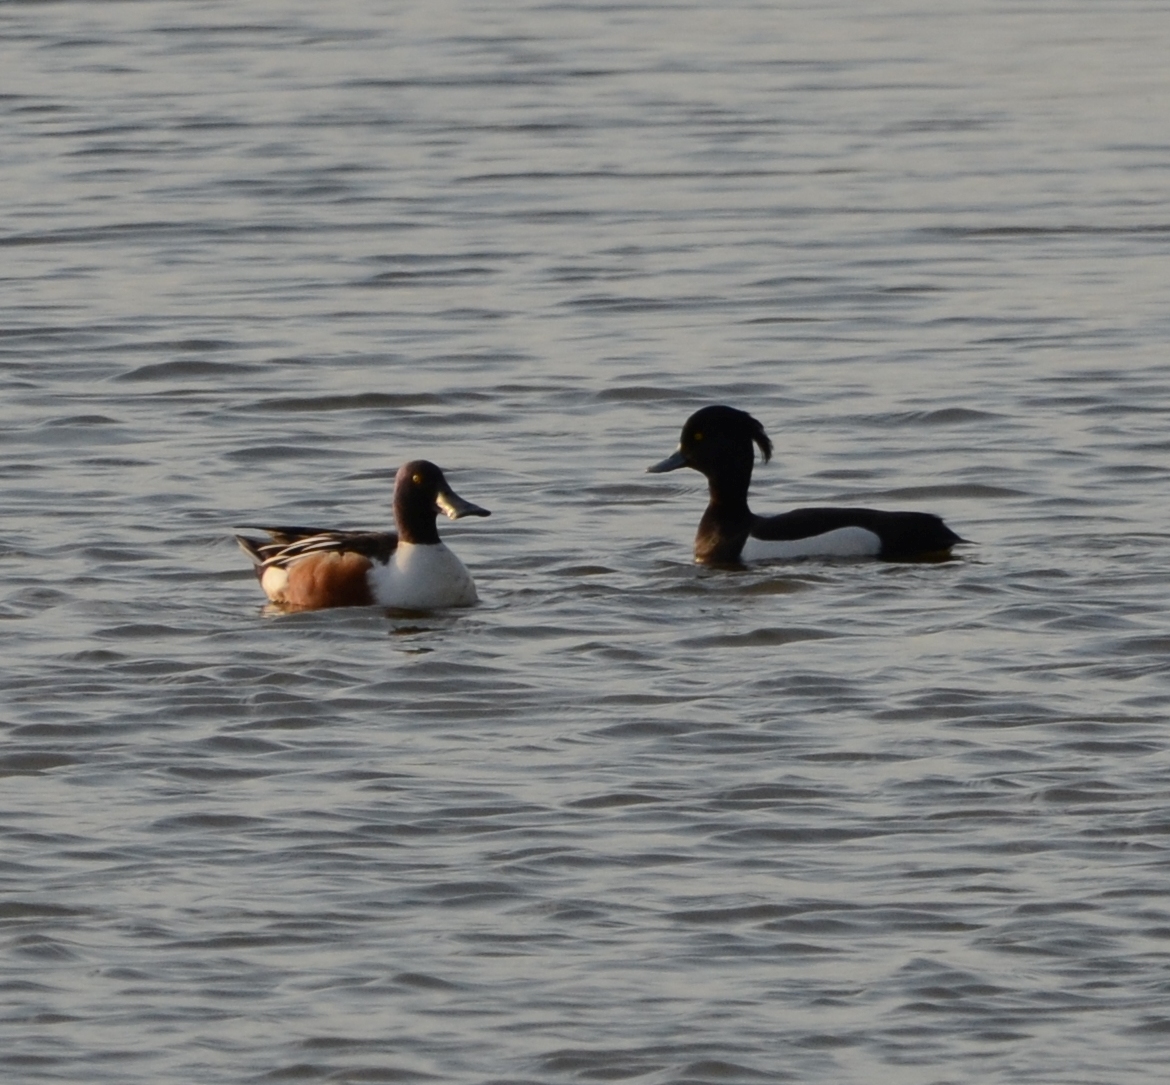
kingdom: Animalia
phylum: Chordata
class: Aves
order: Anseriformes
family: Anatidae
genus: Spatula
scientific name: Spatula clypeata
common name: Northern shoveler
